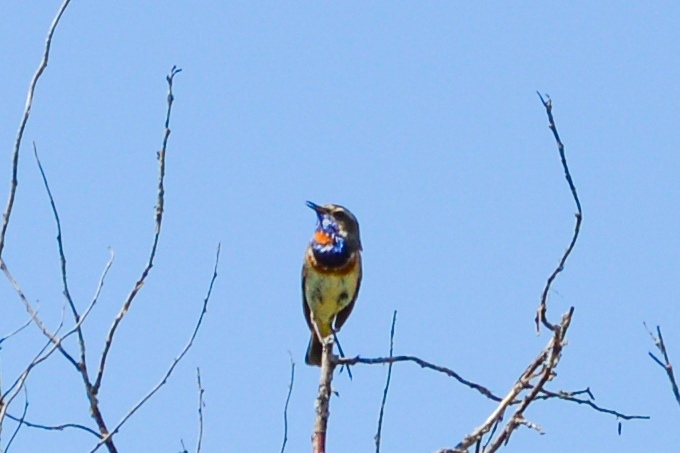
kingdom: Animalia
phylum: Chordata
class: Aves
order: Passeriformes
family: Muscicapidae
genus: Luscinia
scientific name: Luscinia svecica
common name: Bluethroat
